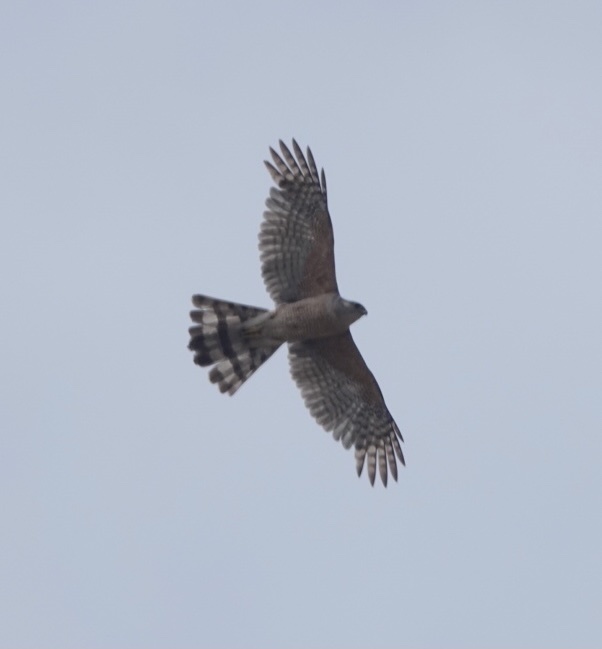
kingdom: Animalia
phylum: Chordata
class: Aves
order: Accipitriformes
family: Accipitridae
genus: Accipiter
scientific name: Accipiter cooperii
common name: Cooper's hawk
